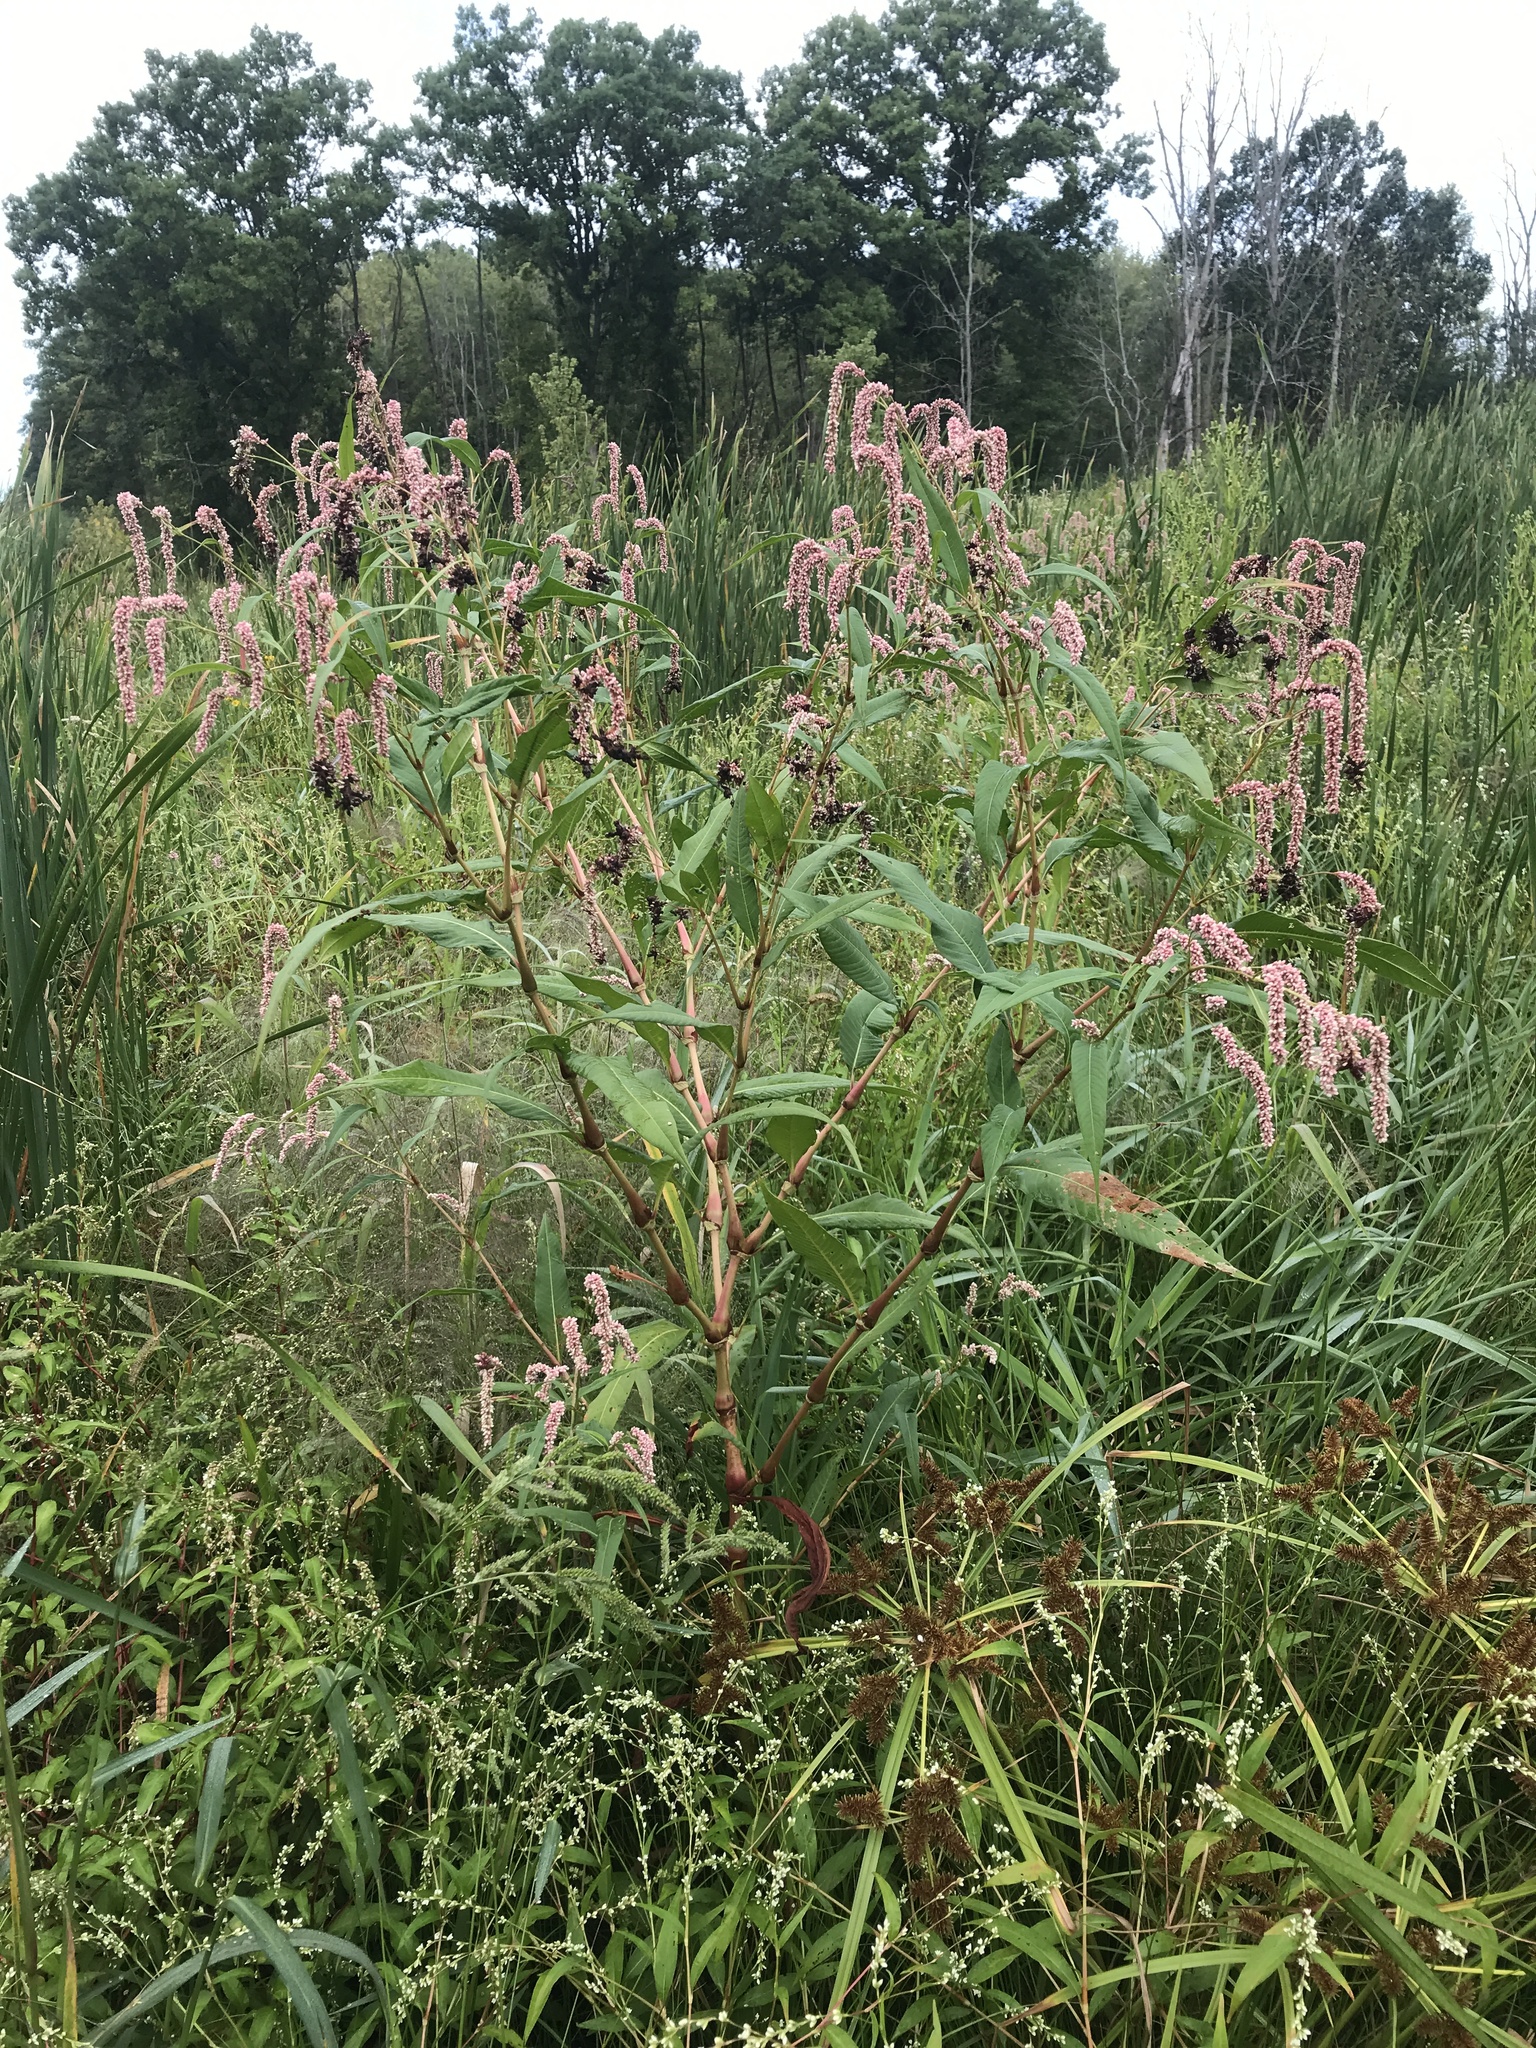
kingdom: Plantae
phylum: Tracheophyta
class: Magnoliopsida
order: Caryophyllales
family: Polygonaceae
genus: Persicaria
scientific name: Persicaria lapathifolia
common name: Curlytop knotweed
